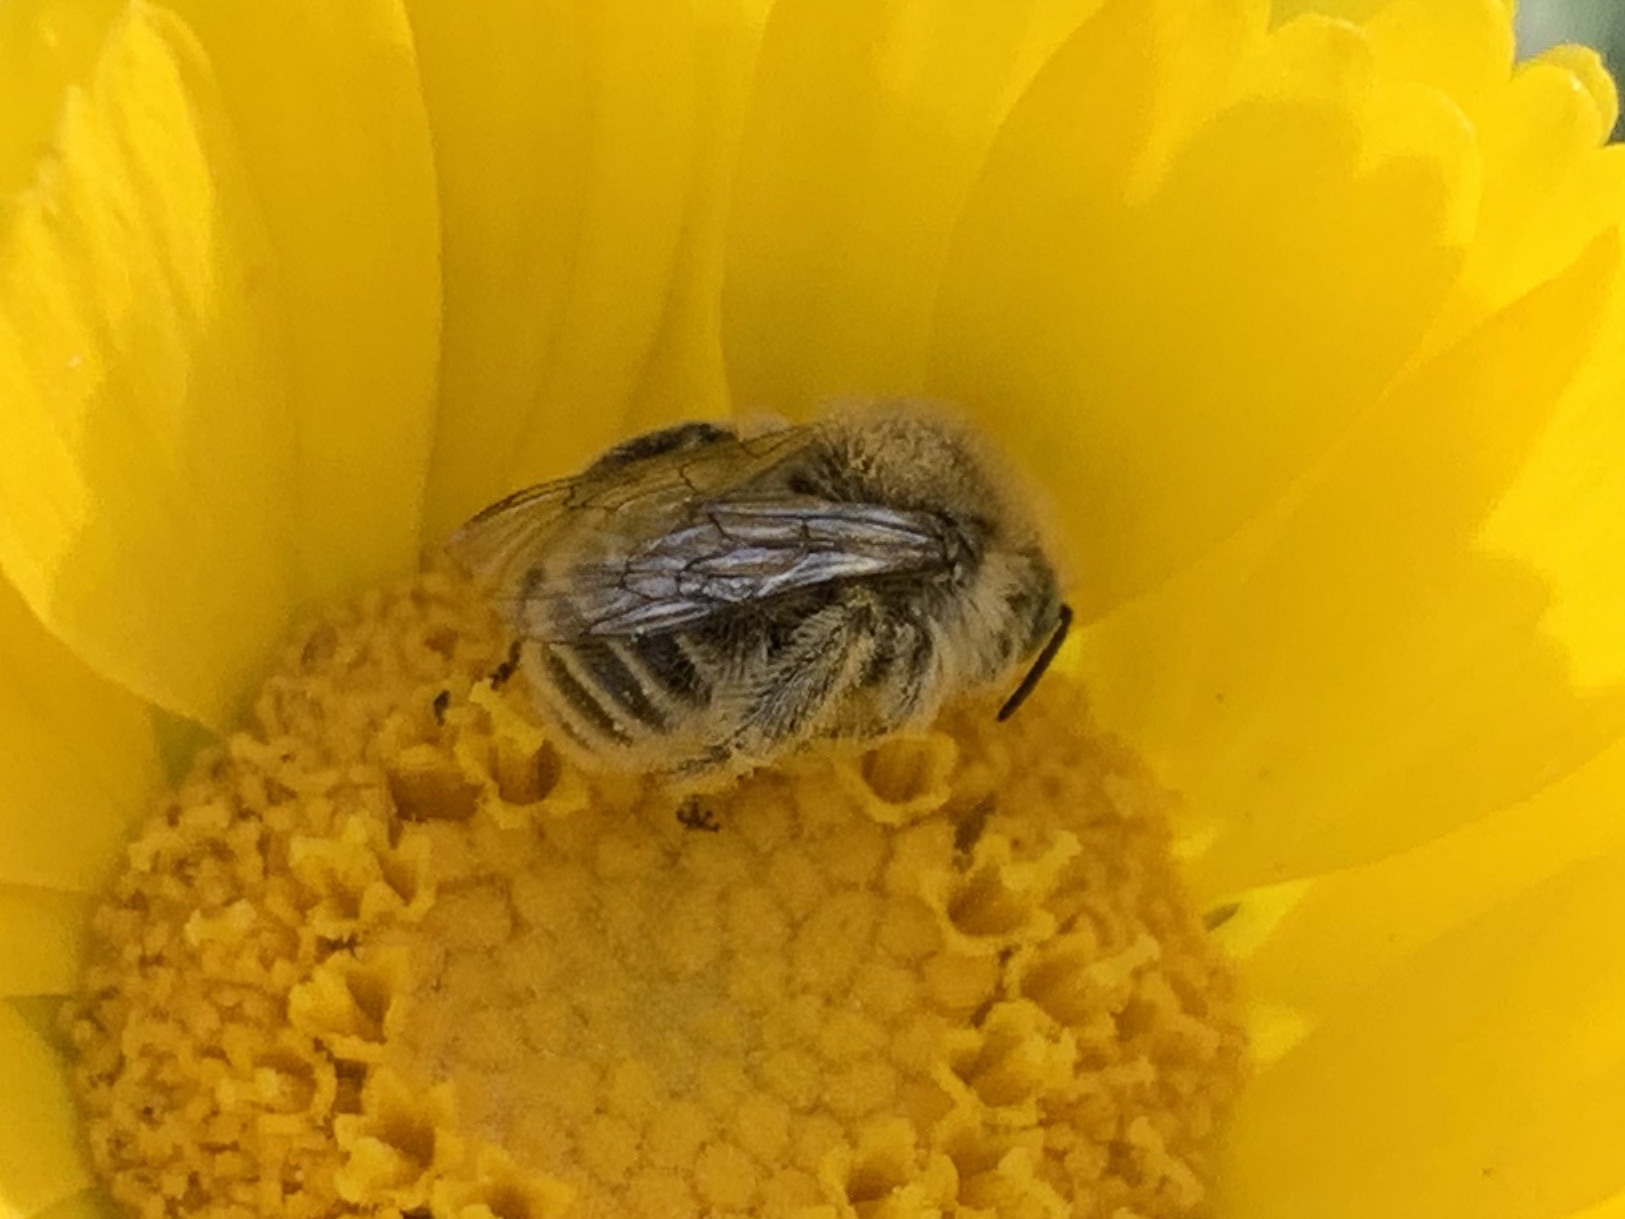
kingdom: Animalia
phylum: Arthropoda
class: Insecta
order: Hymenoptera
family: Apidae
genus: Diadasia
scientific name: Diadasia
